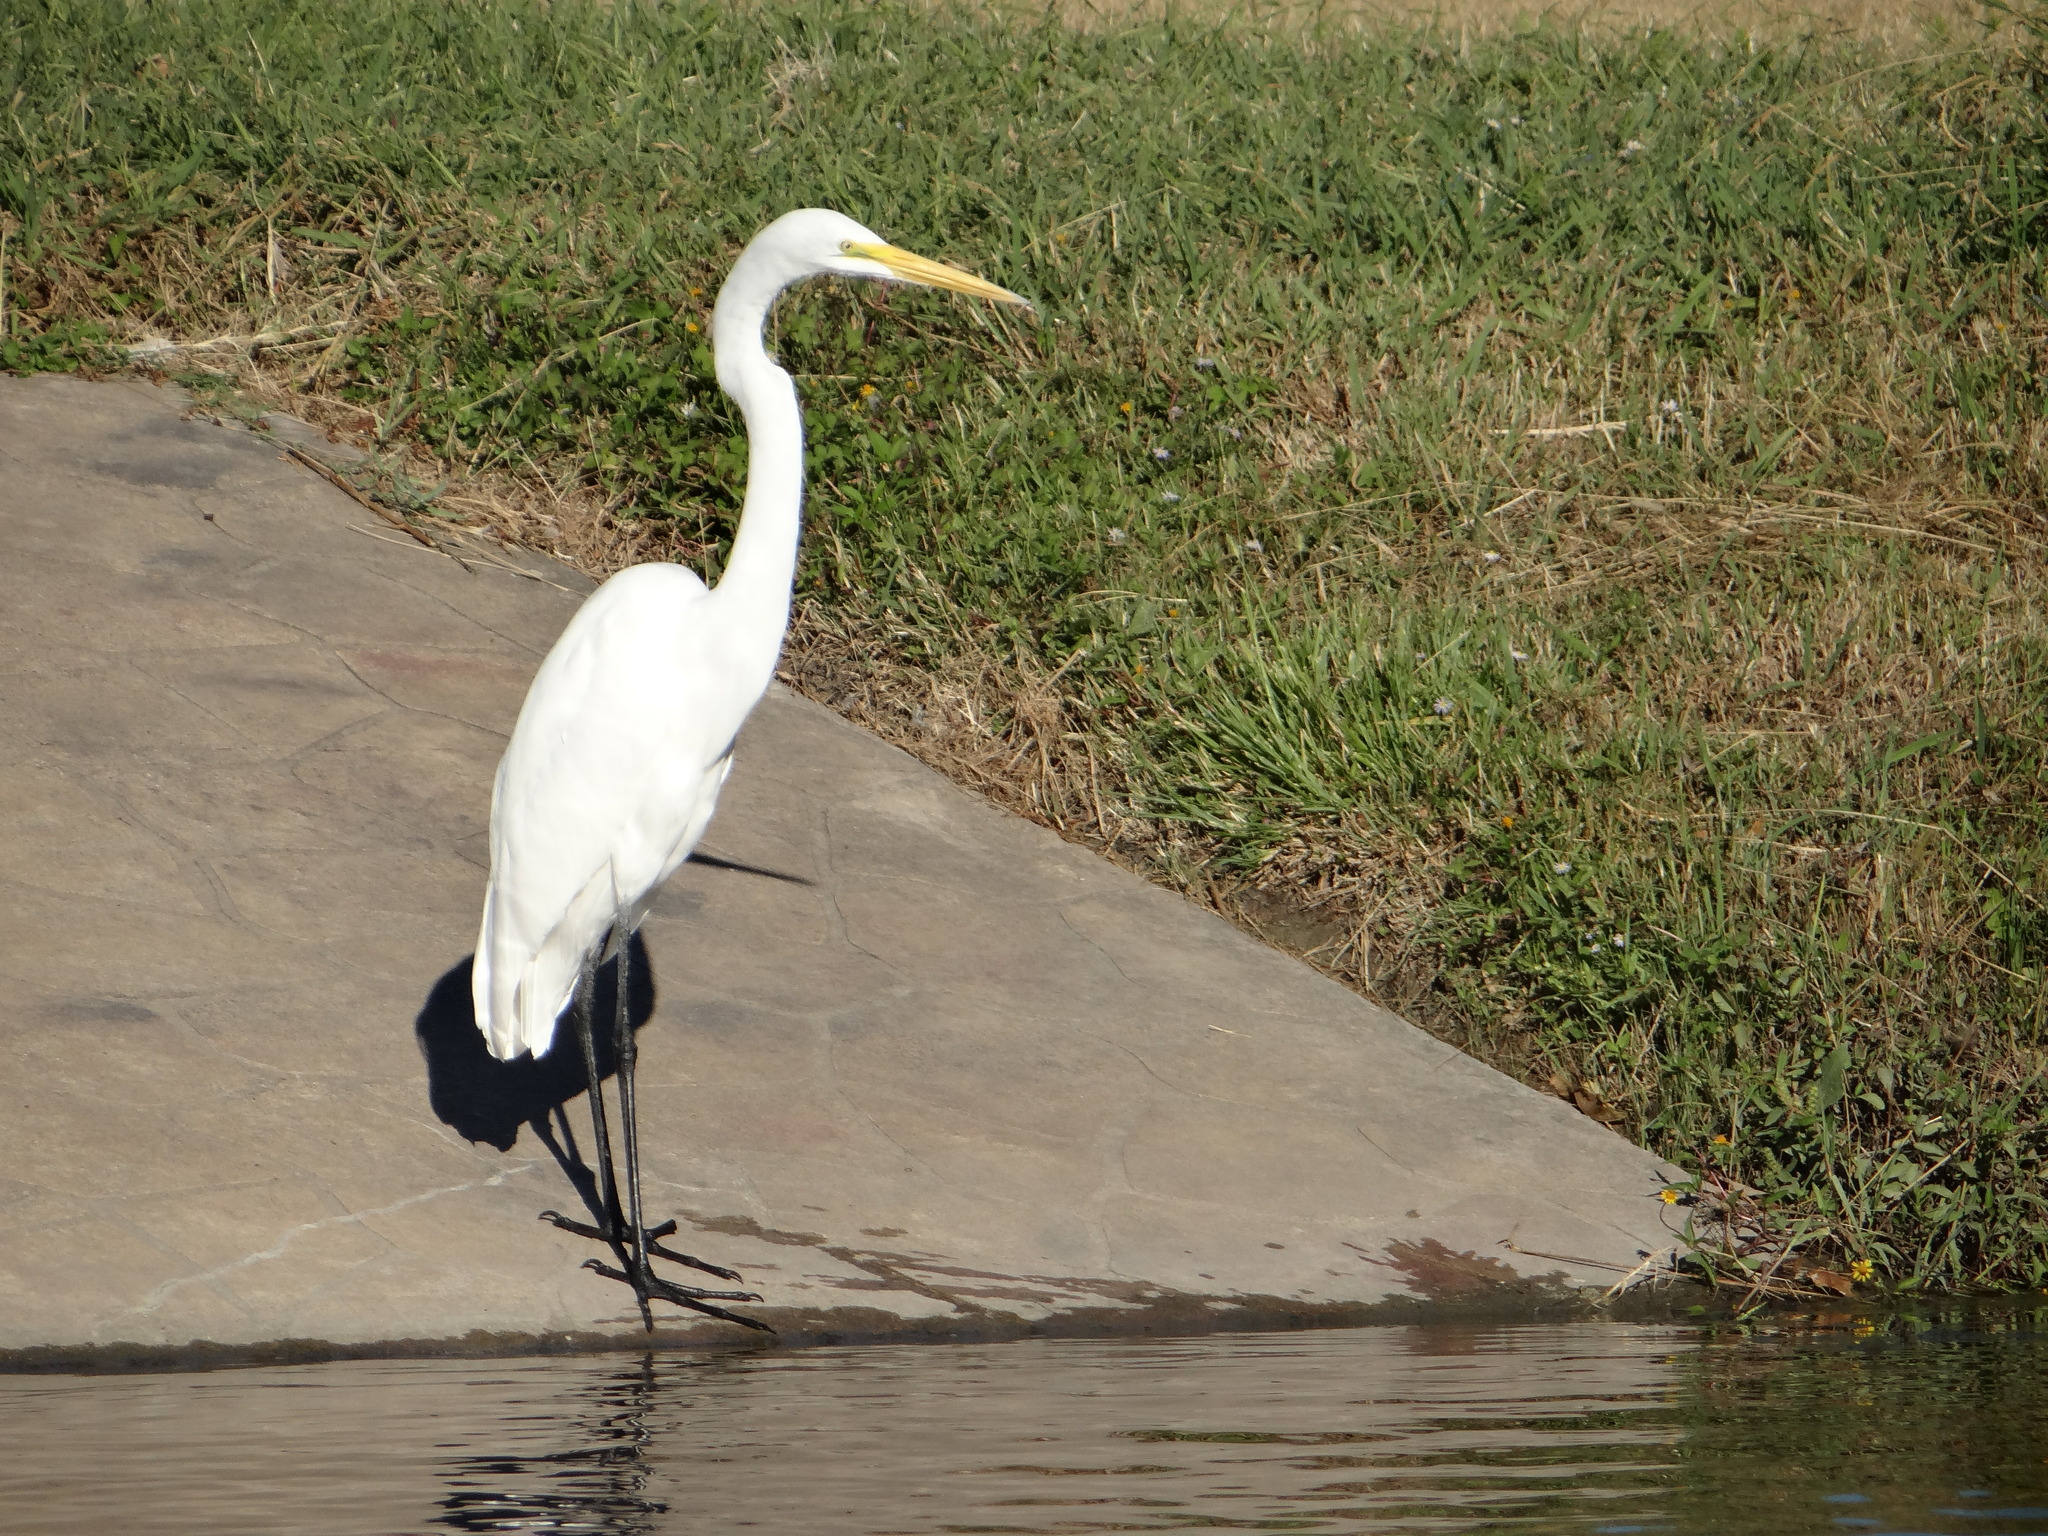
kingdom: Animalia
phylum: Chordata
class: Aves
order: Pelecaniformes
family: Ardeidae
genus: Ardea
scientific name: Ardea alba
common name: Great egret
